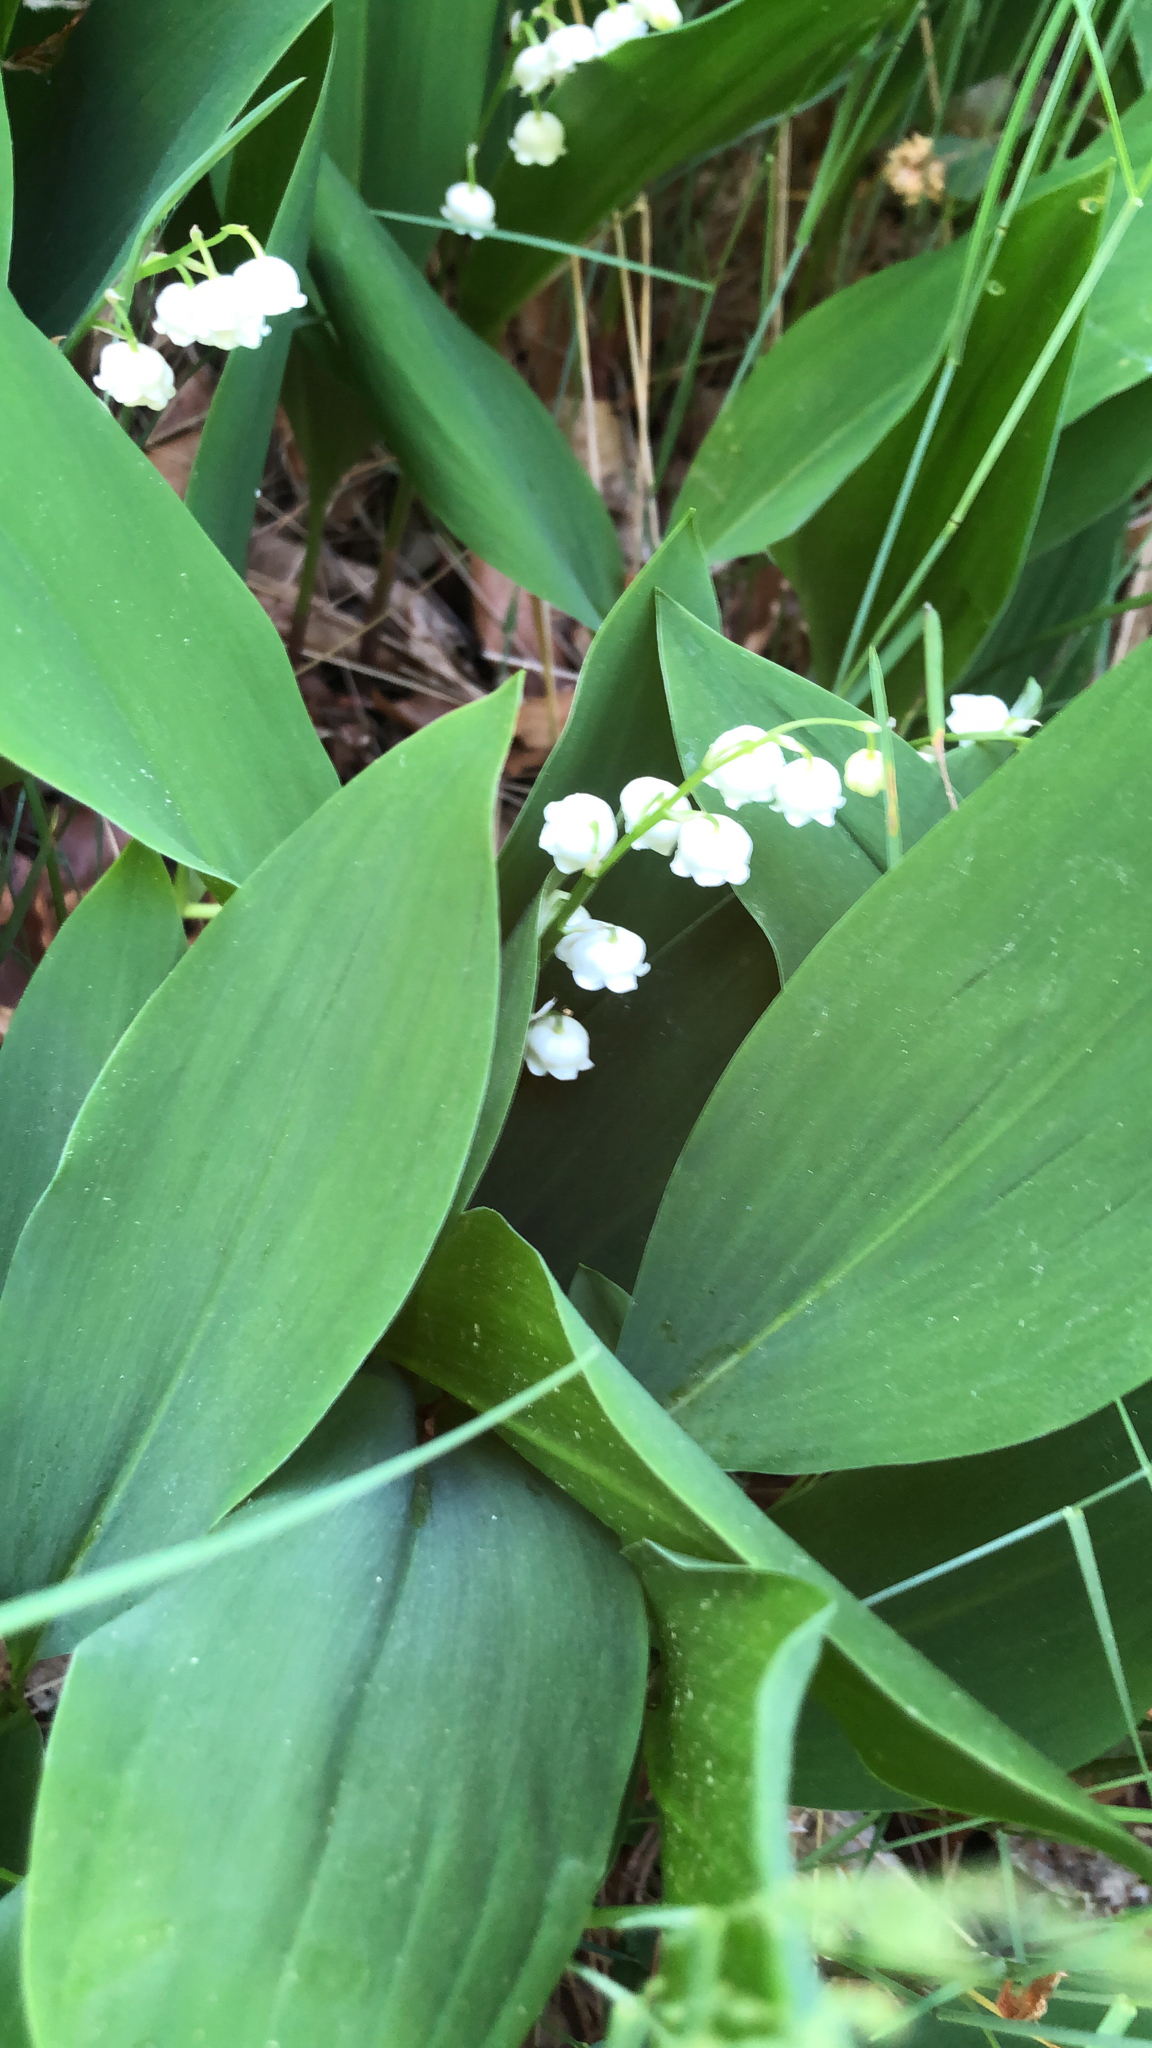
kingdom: Plantae
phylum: Tracheophyta
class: Liliopsida
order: Asparagales
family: Asparagaceae
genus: Convallaria
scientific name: Convallaria majalis
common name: Lily-of-the-valley
